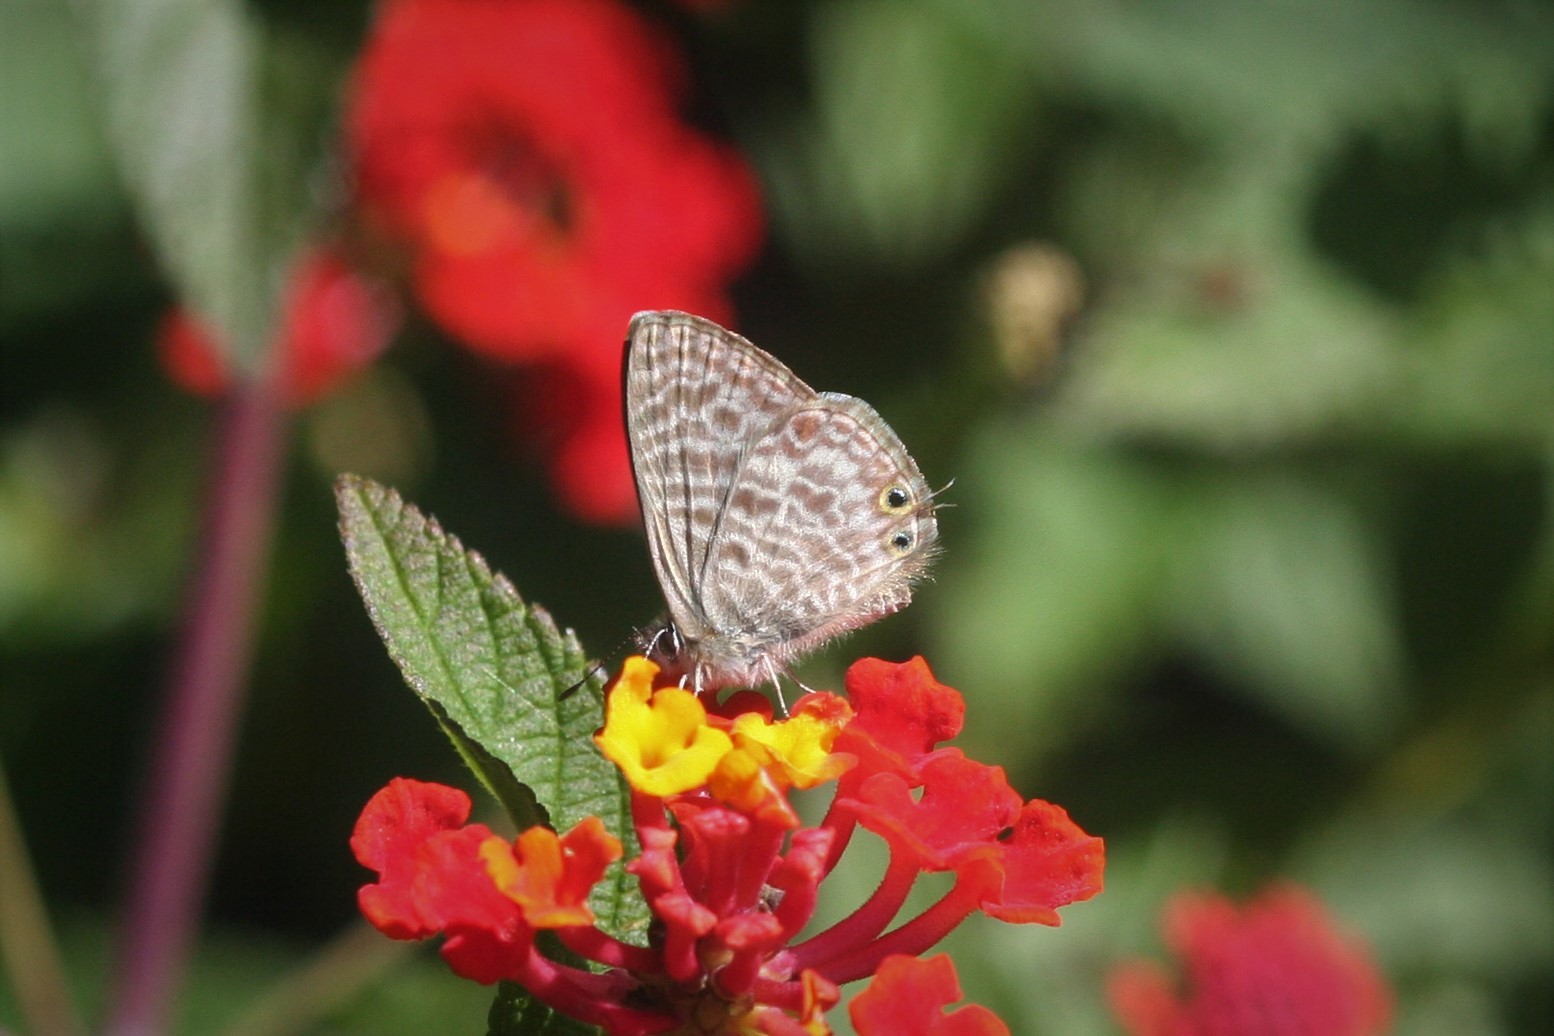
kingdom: Animalia
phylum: Arthropoda
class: Insecta
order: Lepidoptera
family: Lycaenidae
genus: Leptotes
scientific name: Leptotes pirithous
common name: Lang's short-tailed blue
